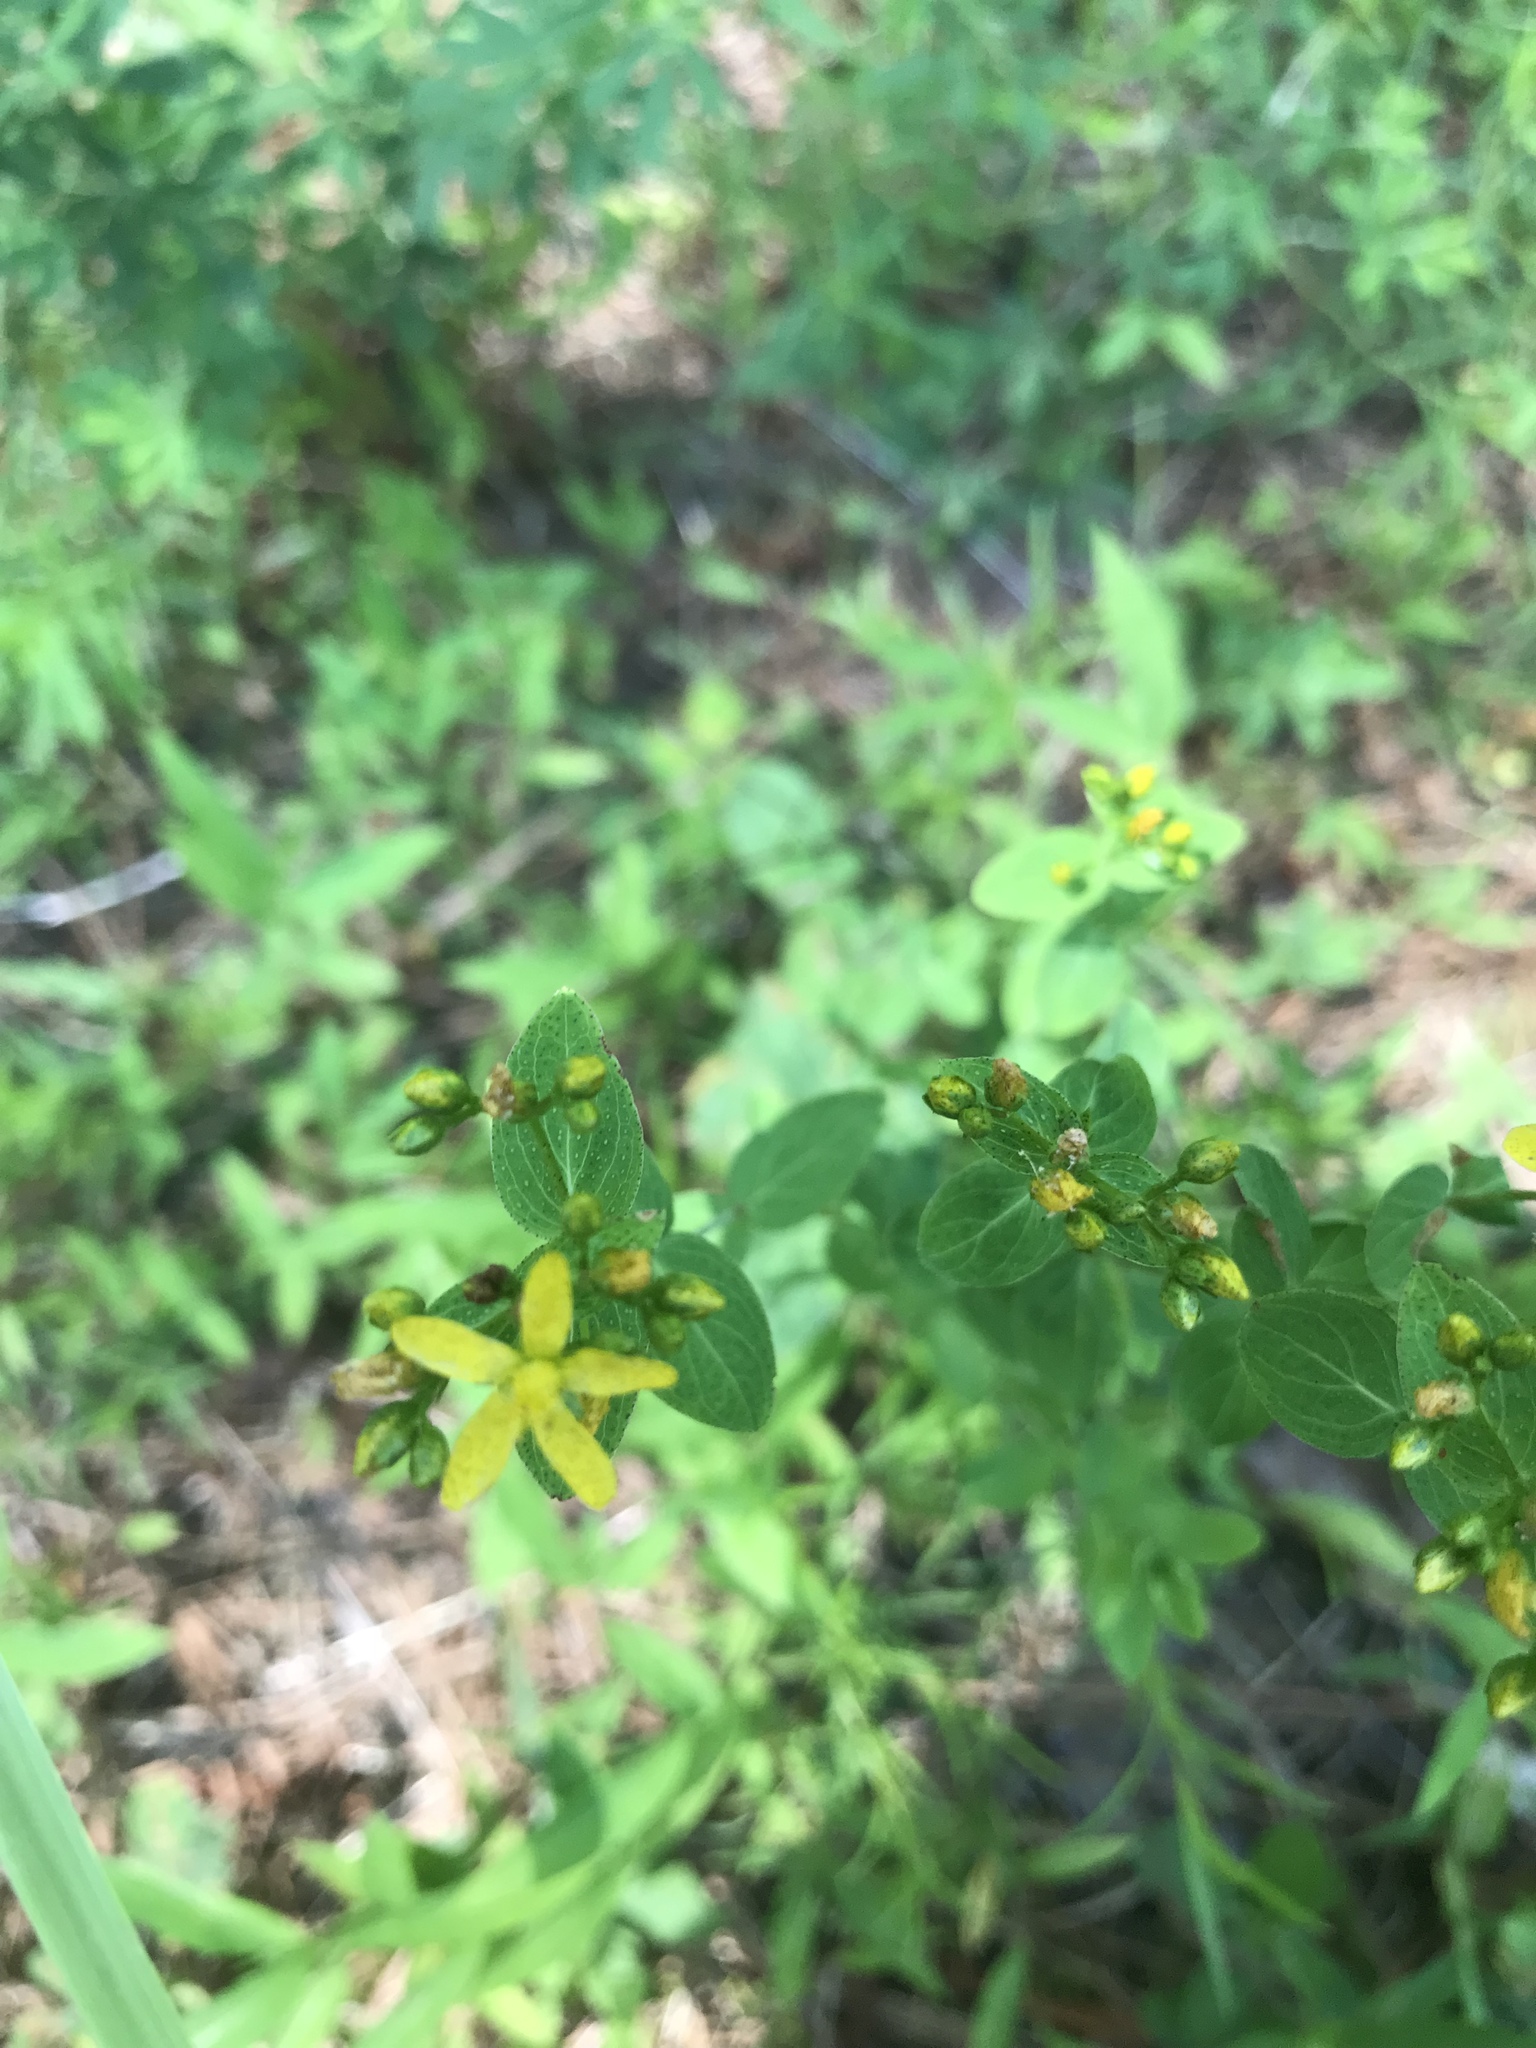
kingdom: Plantae
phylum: Tracheophyta
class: Magnoliopsida
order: Malpighiales
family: Hypericaceae
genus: Hypericum
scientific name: Hypericum punctatum
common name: Spotted st. john's-wort
